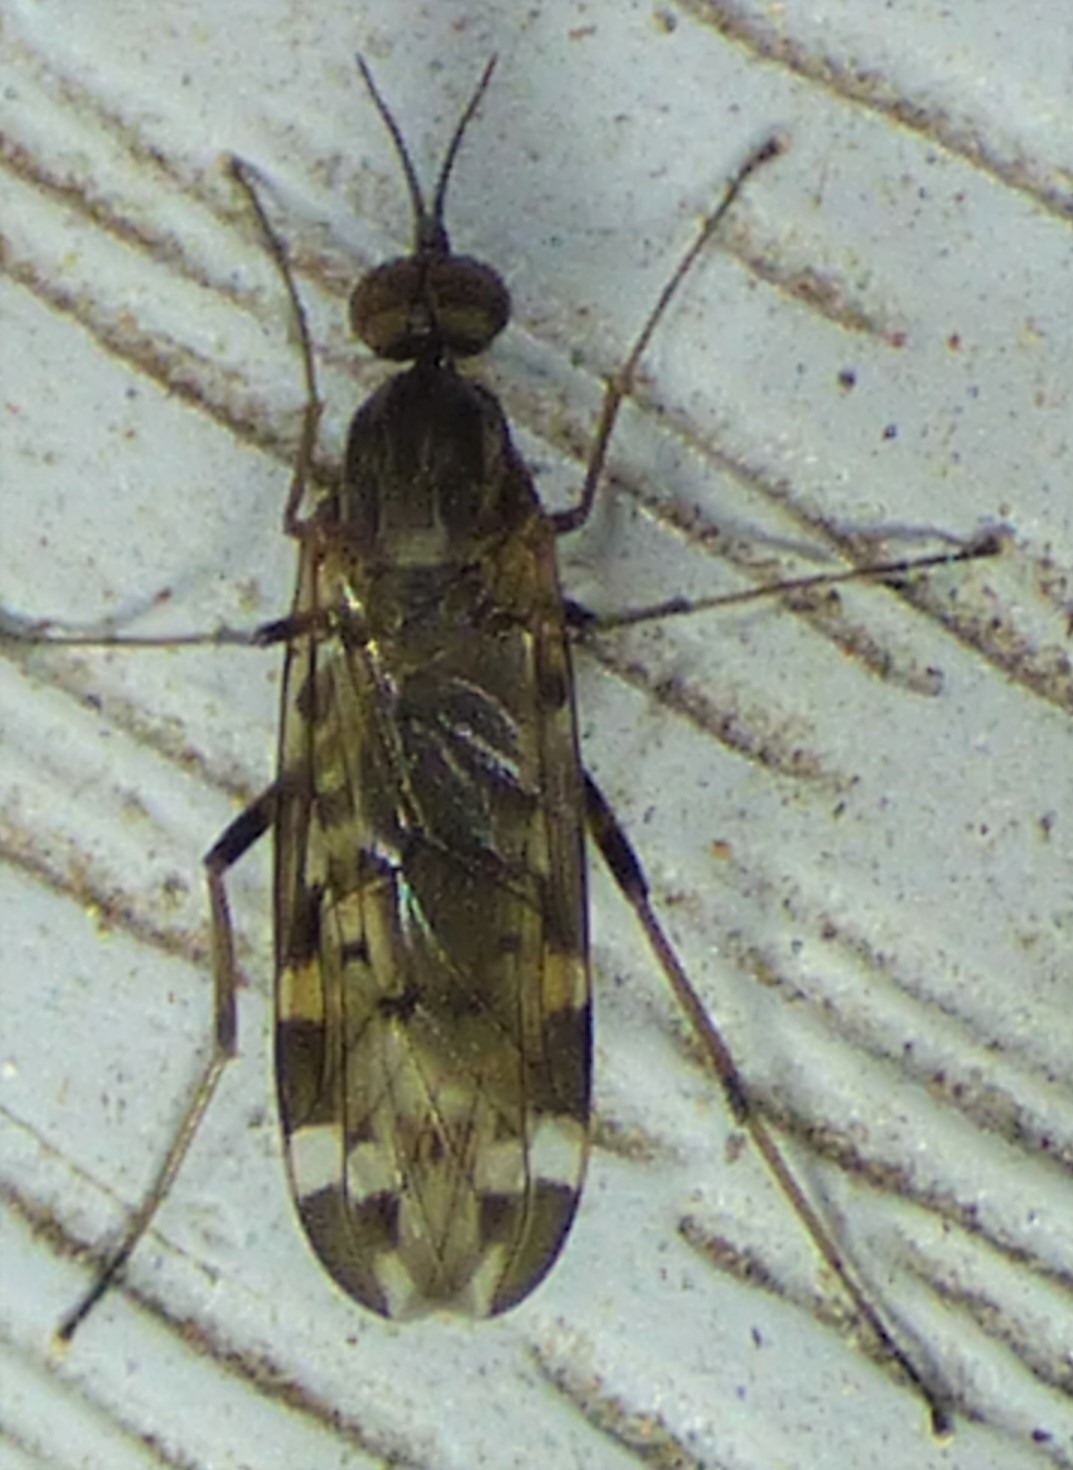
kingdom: Animalia
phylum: Arthropoda
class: Insecta
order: Diptera
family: Anisopodidae
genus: Sylvicola
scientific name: Sylvicola alternata
